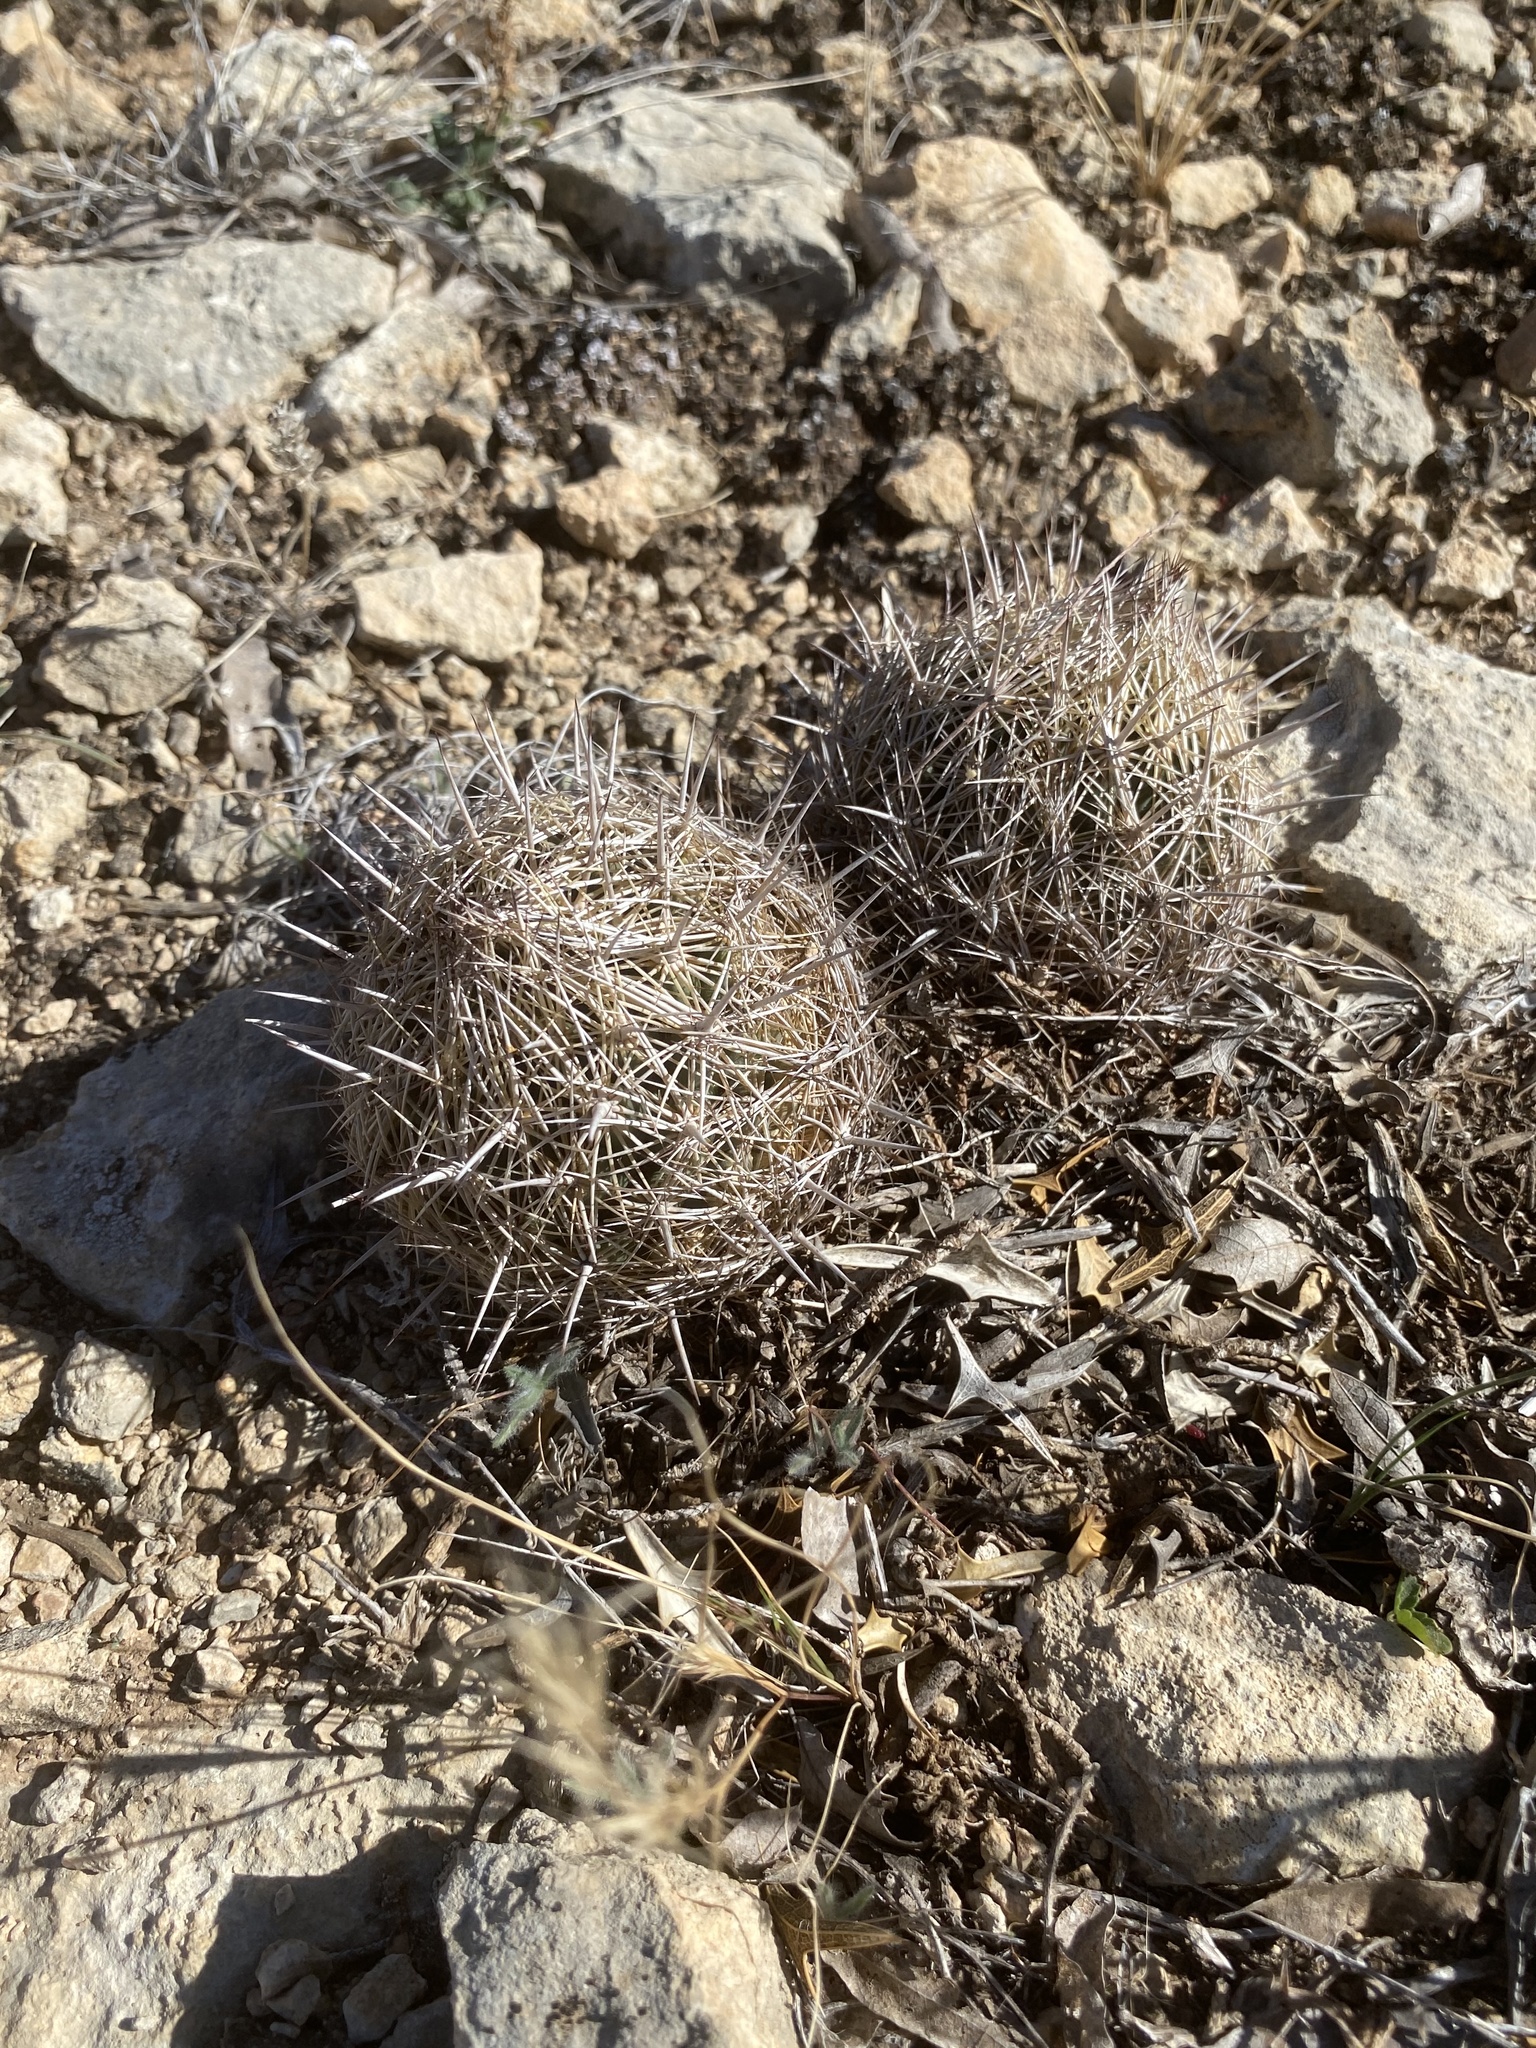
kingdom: Plantae
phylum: Tracheophyta
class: Magnoliopsida
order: Caryophyllales
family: Cactaceae
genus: Coryphantha
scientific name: Coryphantha echinus
